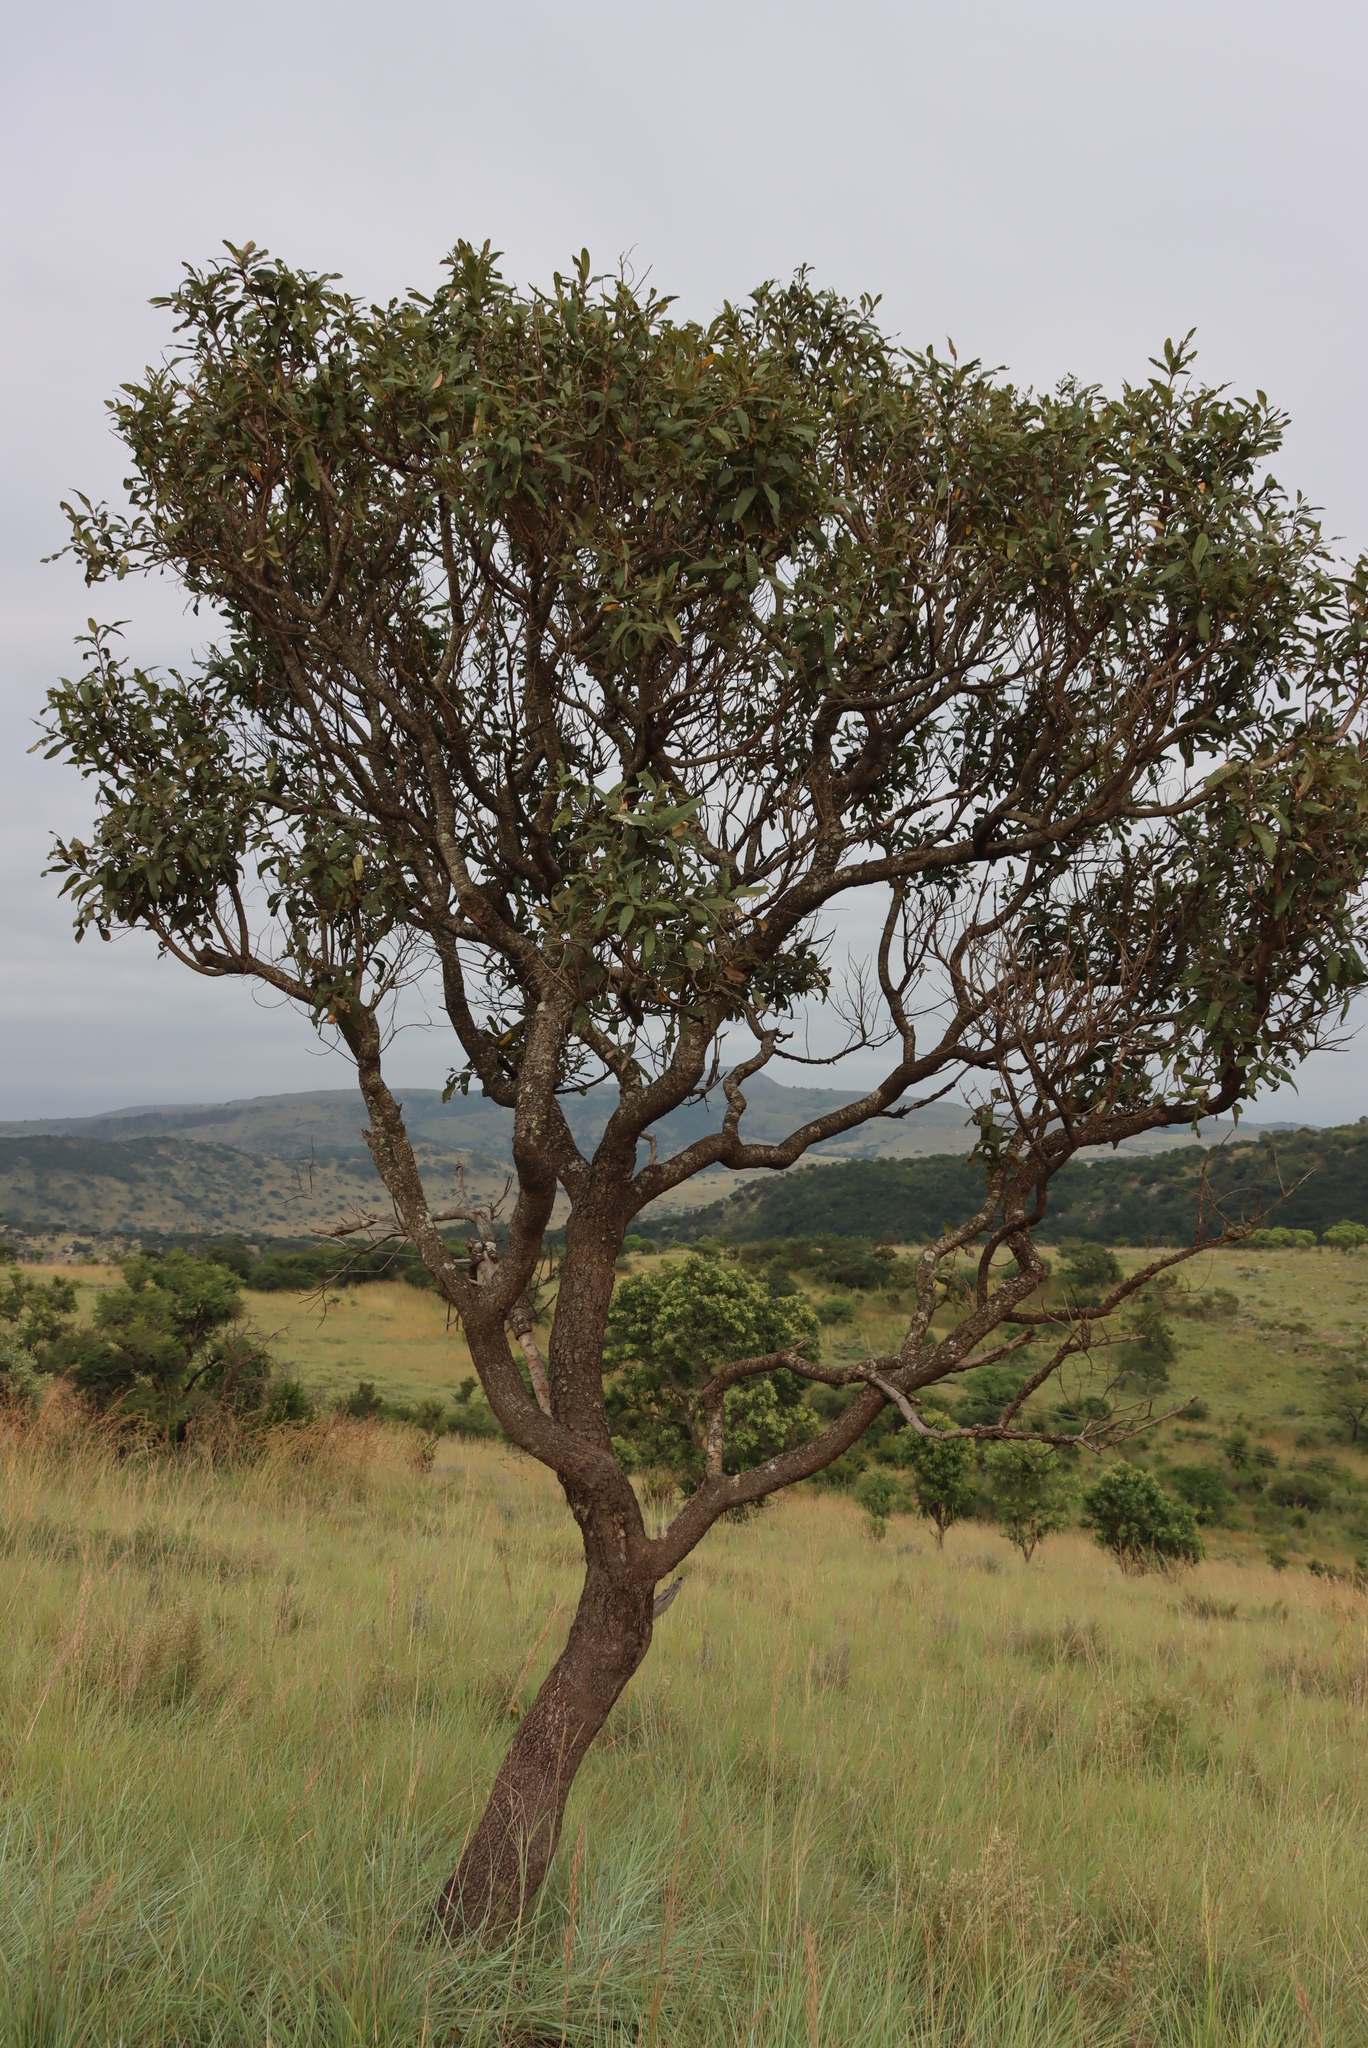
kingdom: Plantae
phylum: Tracheophyta
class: Magnoliopsida
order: Sapindales
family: Anacardiaceae
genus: Ozoroa
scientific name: Ozoroa paniculosa
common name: Bushveld ozoroa
